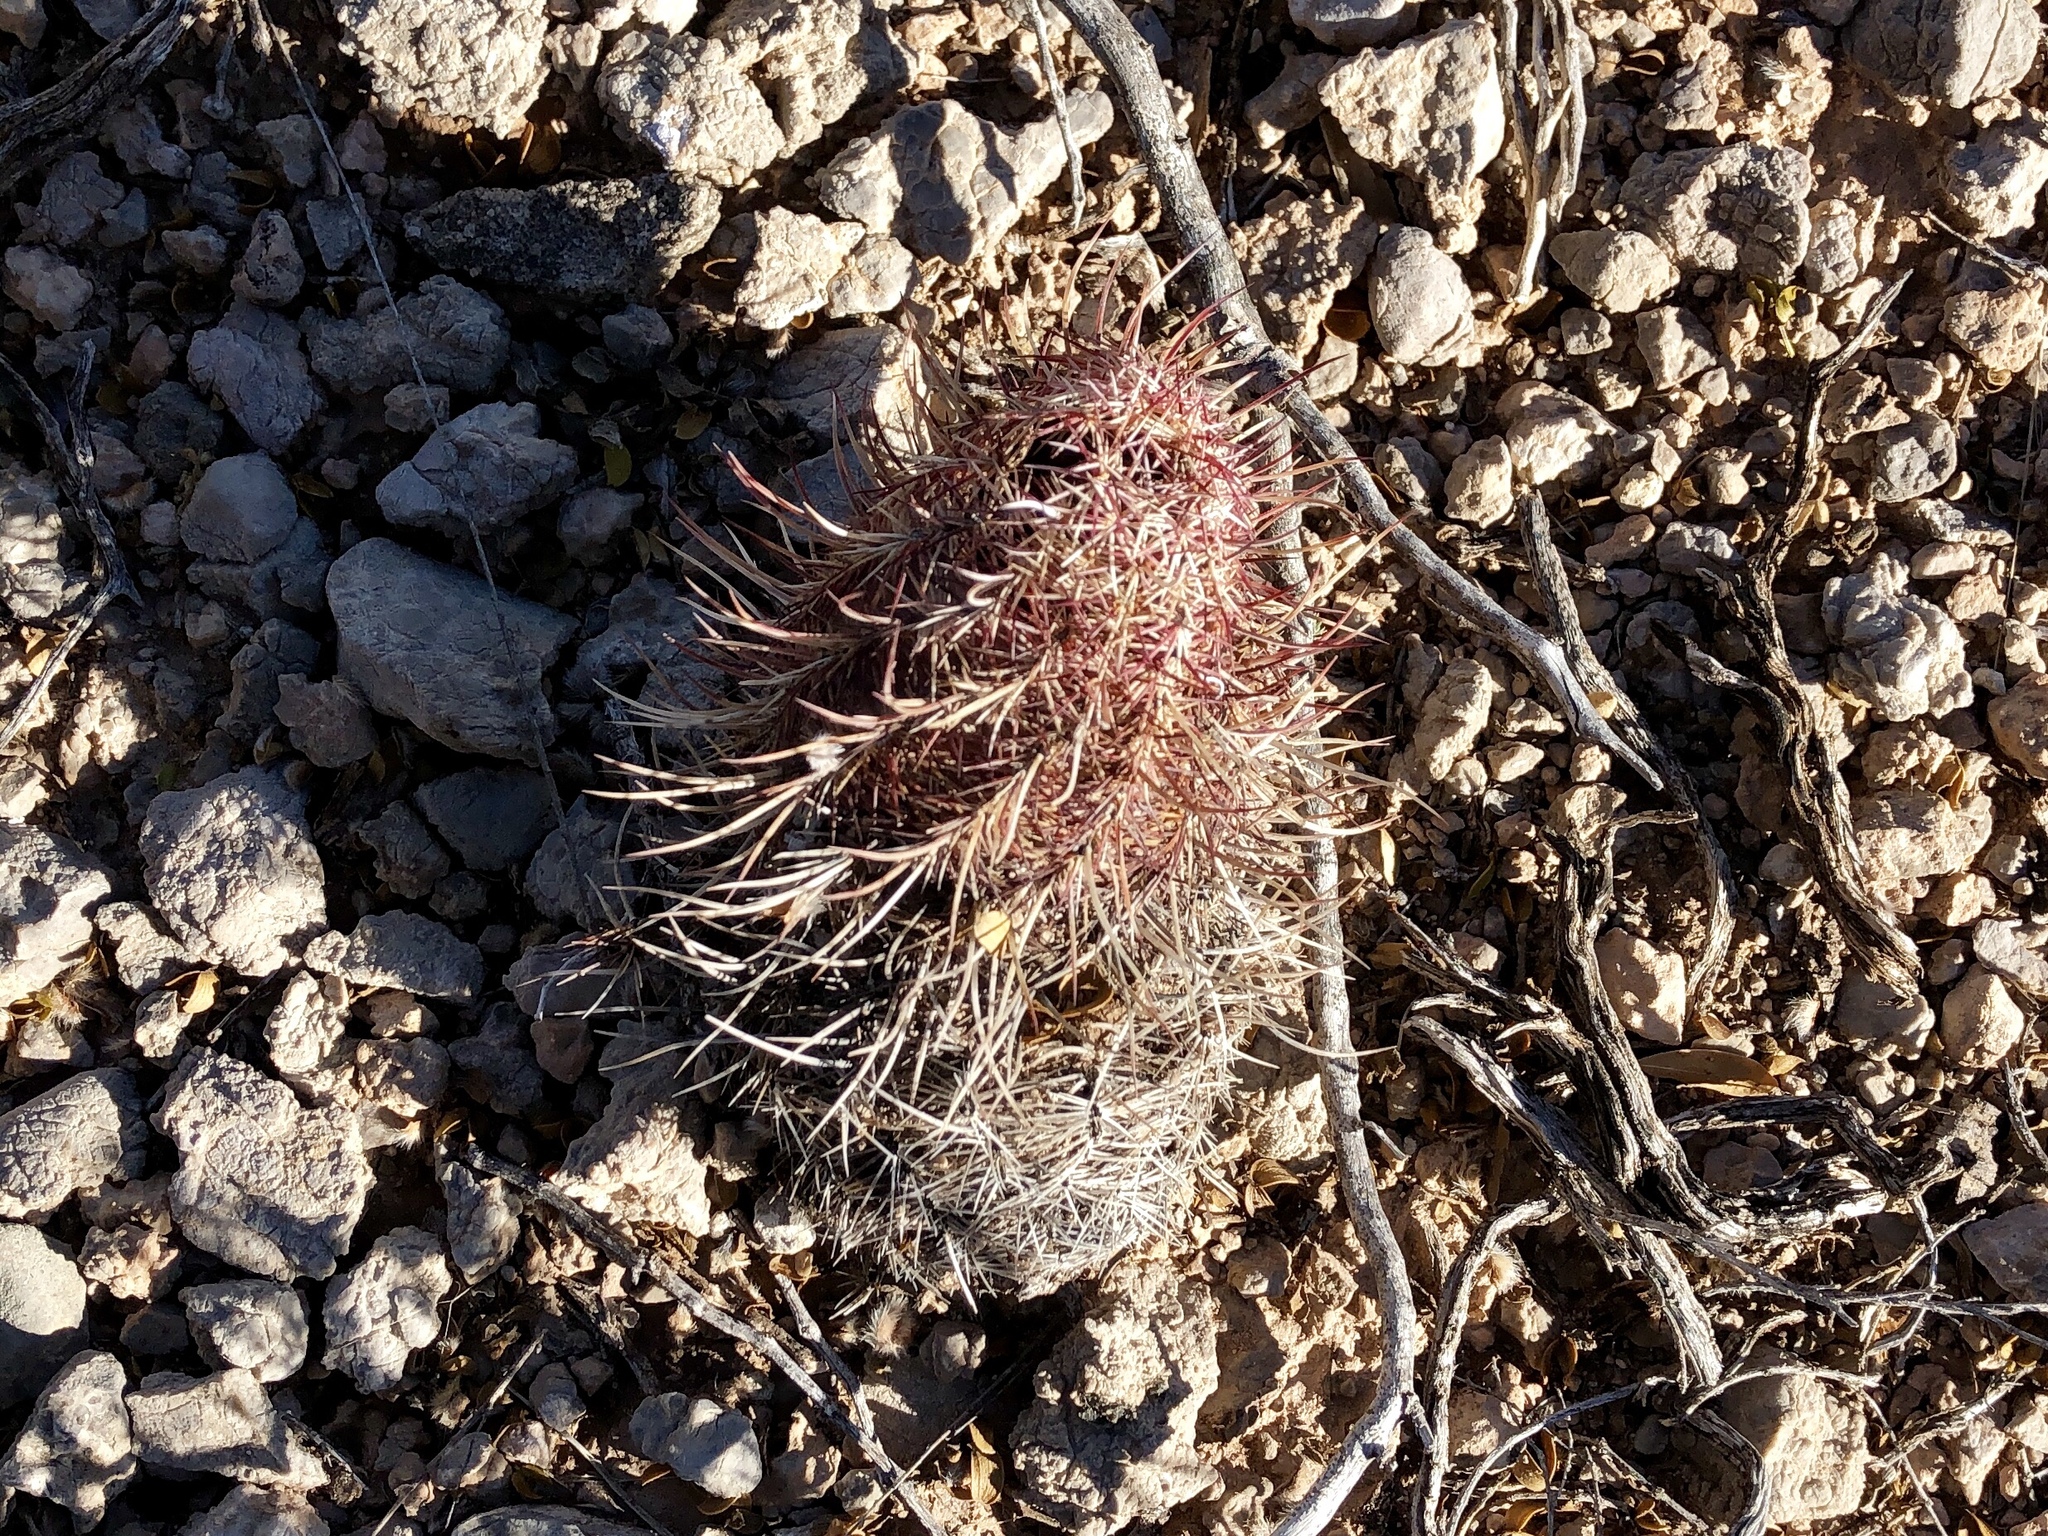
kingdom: Plantae
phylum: Tracheophyta
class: Magnoliopsida
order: Caryophyllales
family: Cactaceae
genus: Echinocereus
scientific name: Echinocereus viridiflorus
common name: Nylon hedgehog cactus
